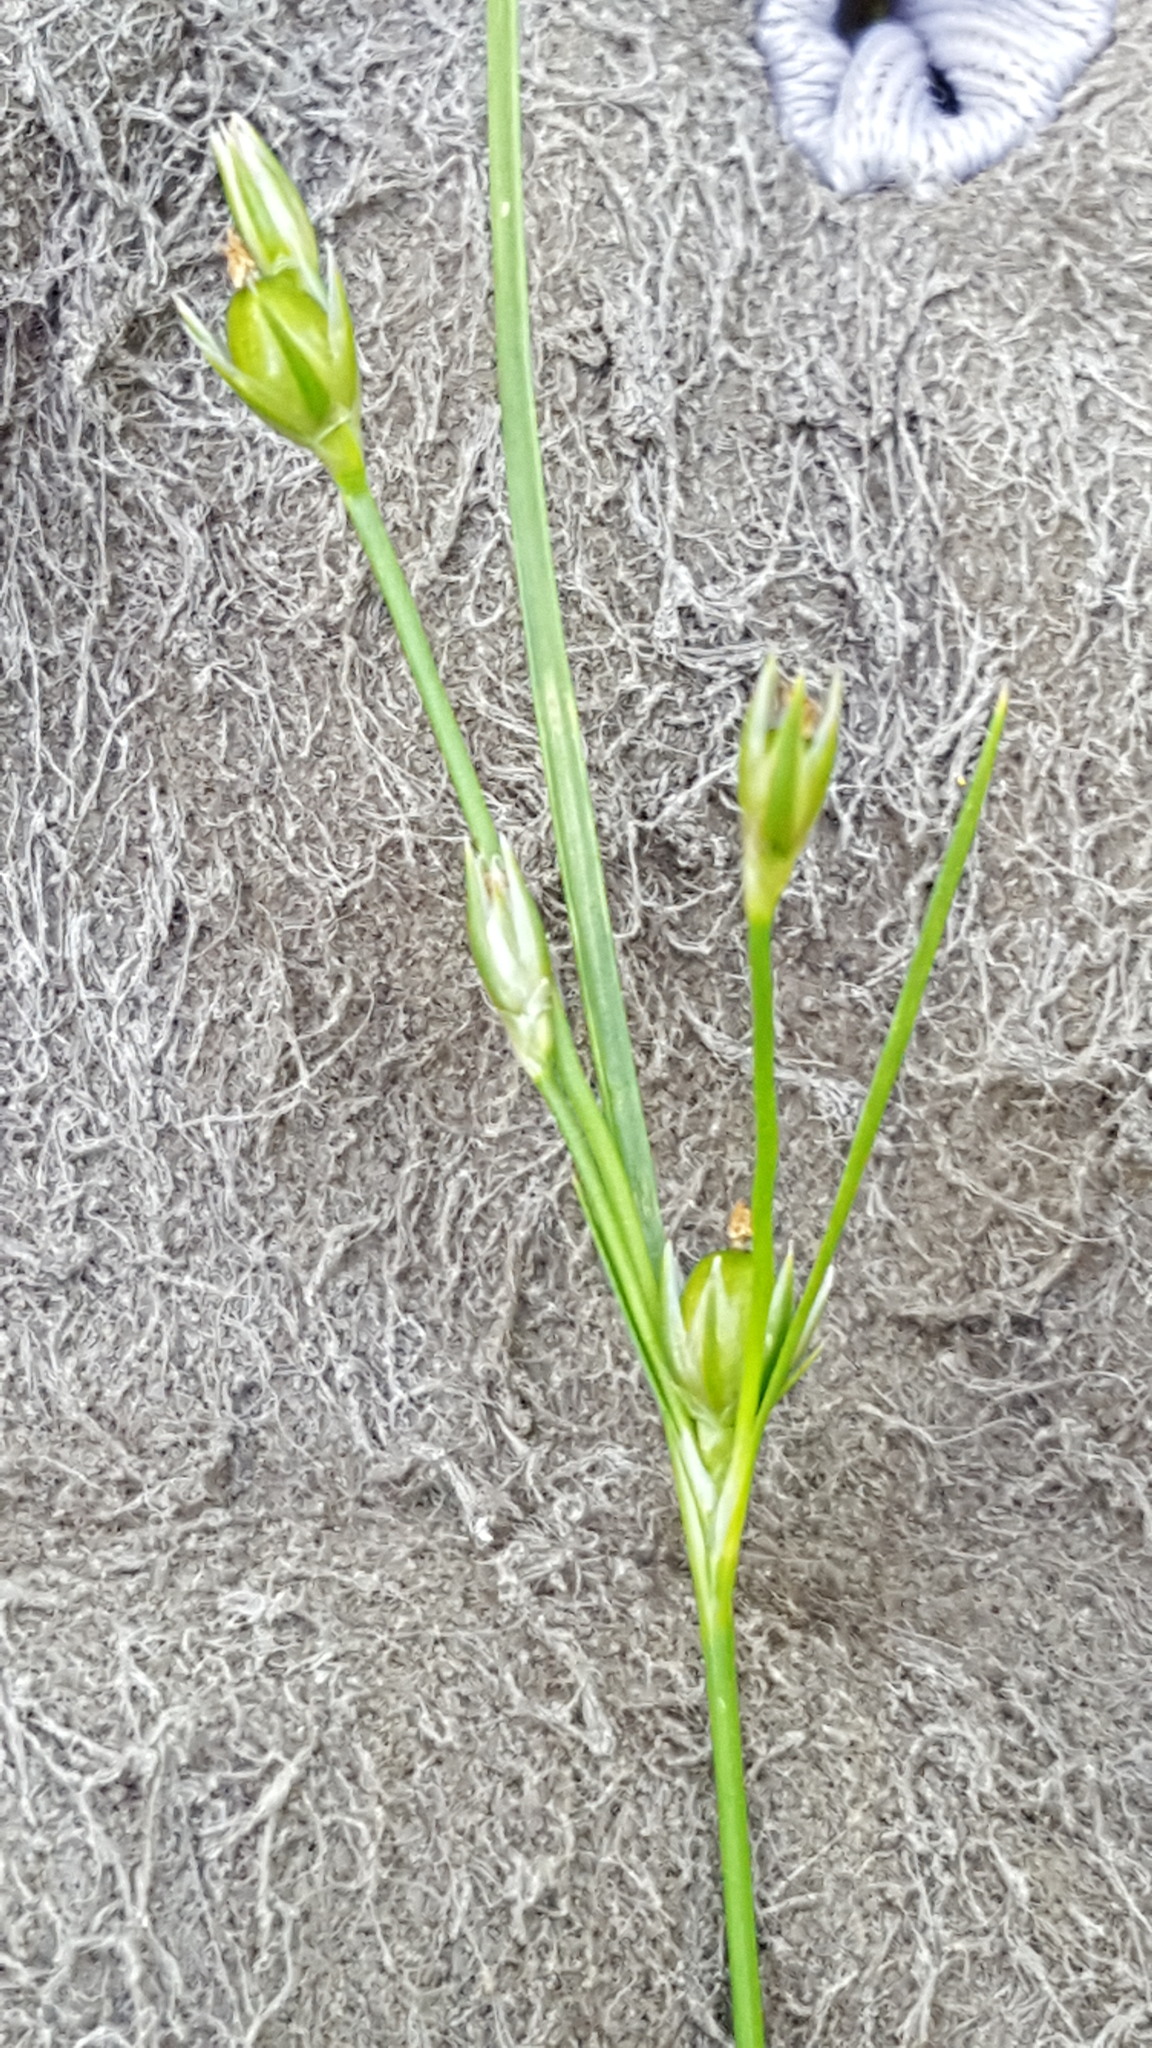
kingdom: Plantae
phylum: Tracheophyta
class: Liliopsida
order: Poales
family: Juncaceae
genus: Juncus
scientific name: Juncus tenuis
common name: Slender rush
